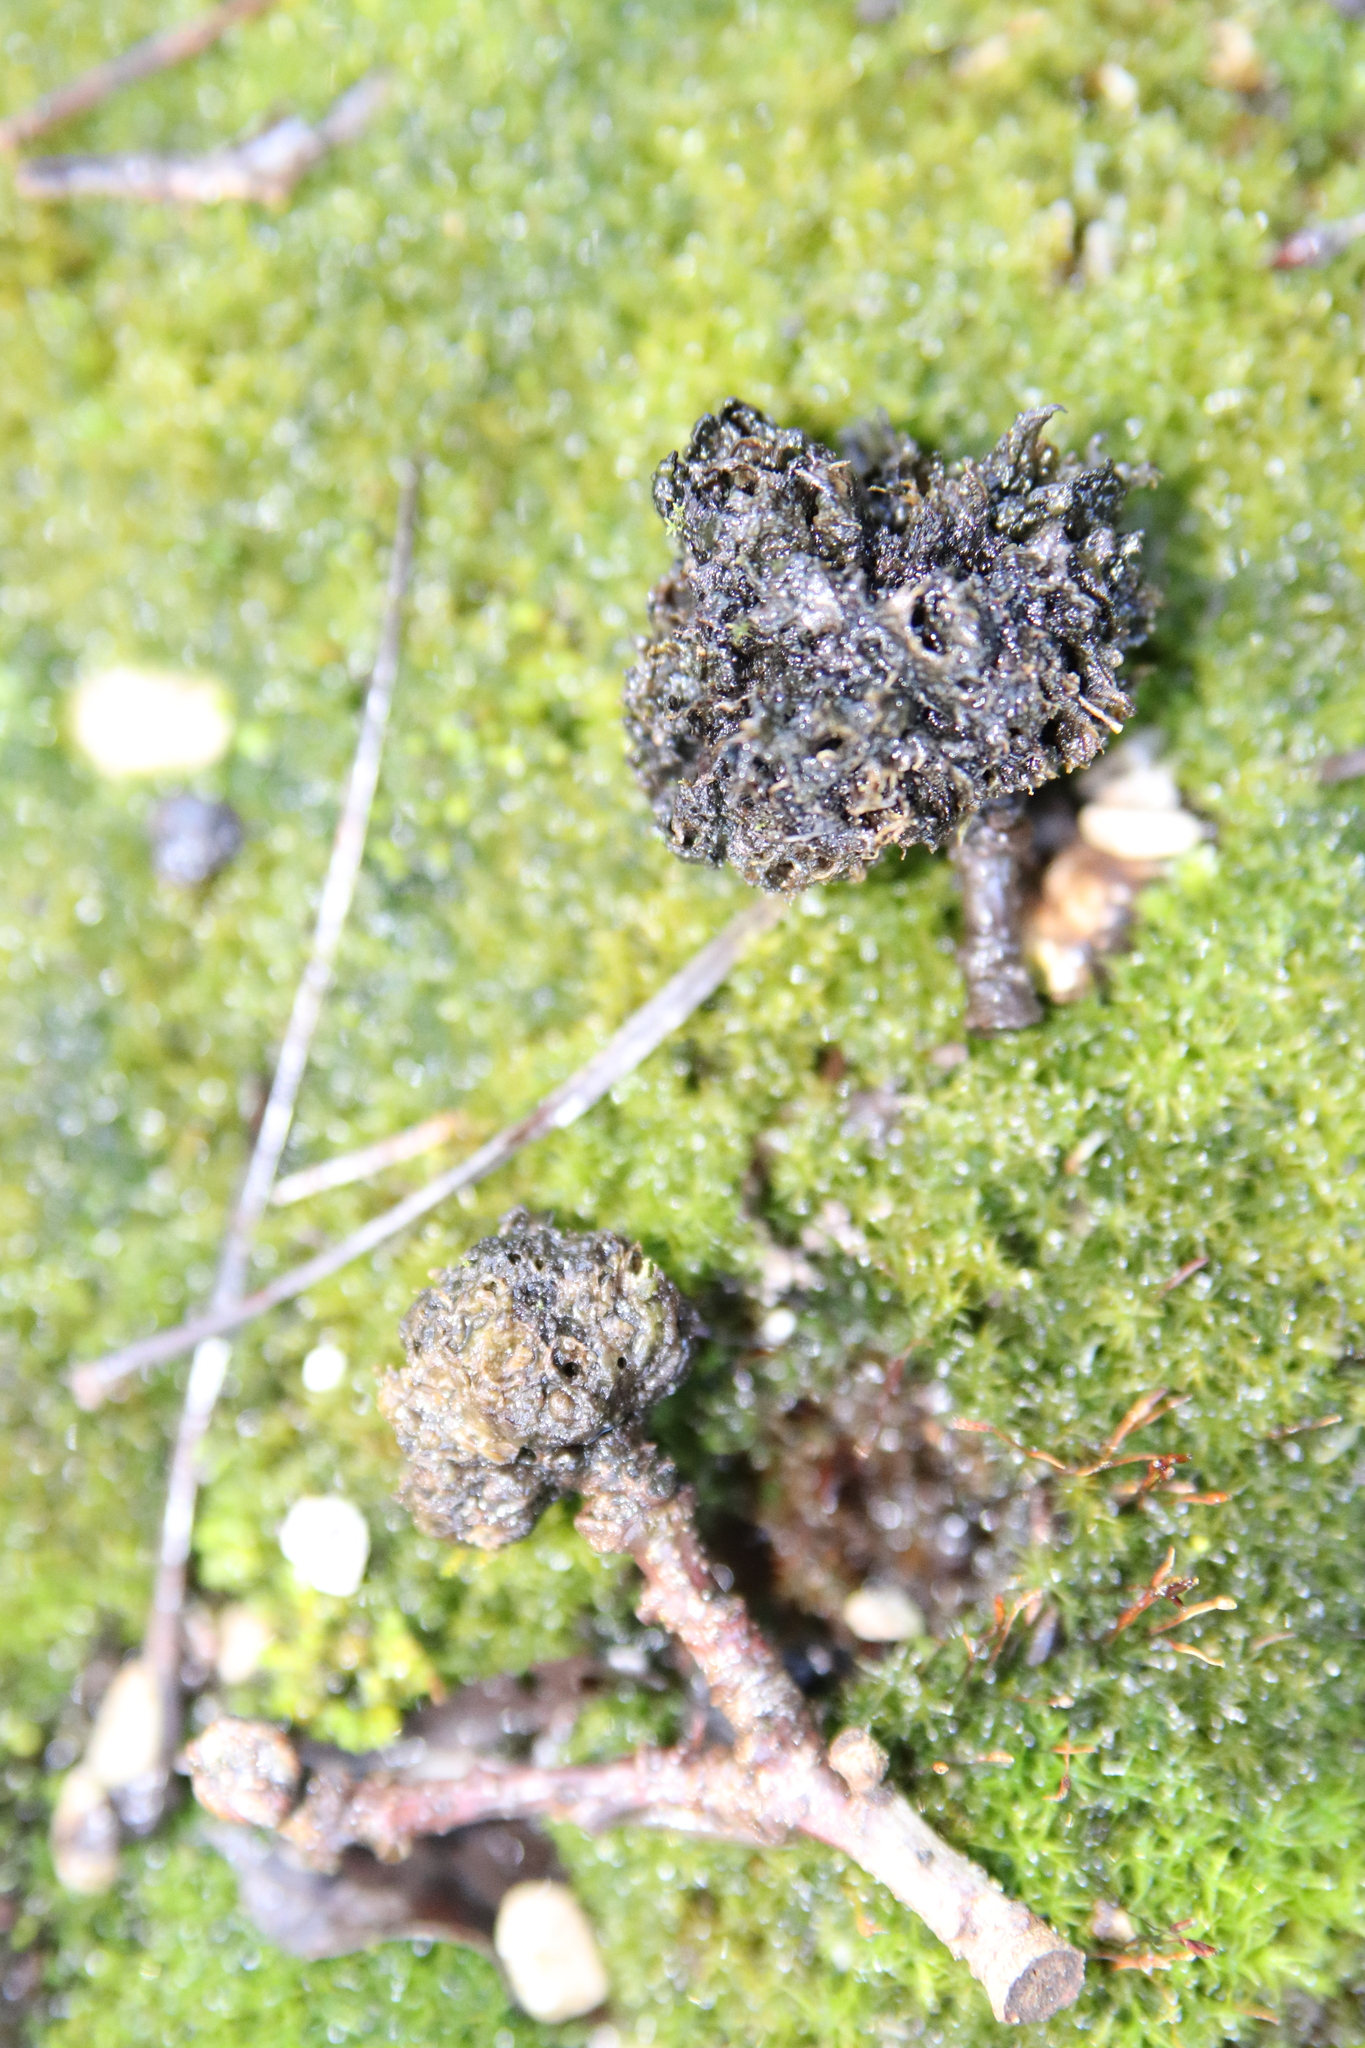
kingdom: Animalia
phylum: Arthropoda
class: Insecta
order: Hymenoptera
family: Cynipidae
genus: Biorhiza
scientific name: Biorhiza pallida
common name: Oak apple
